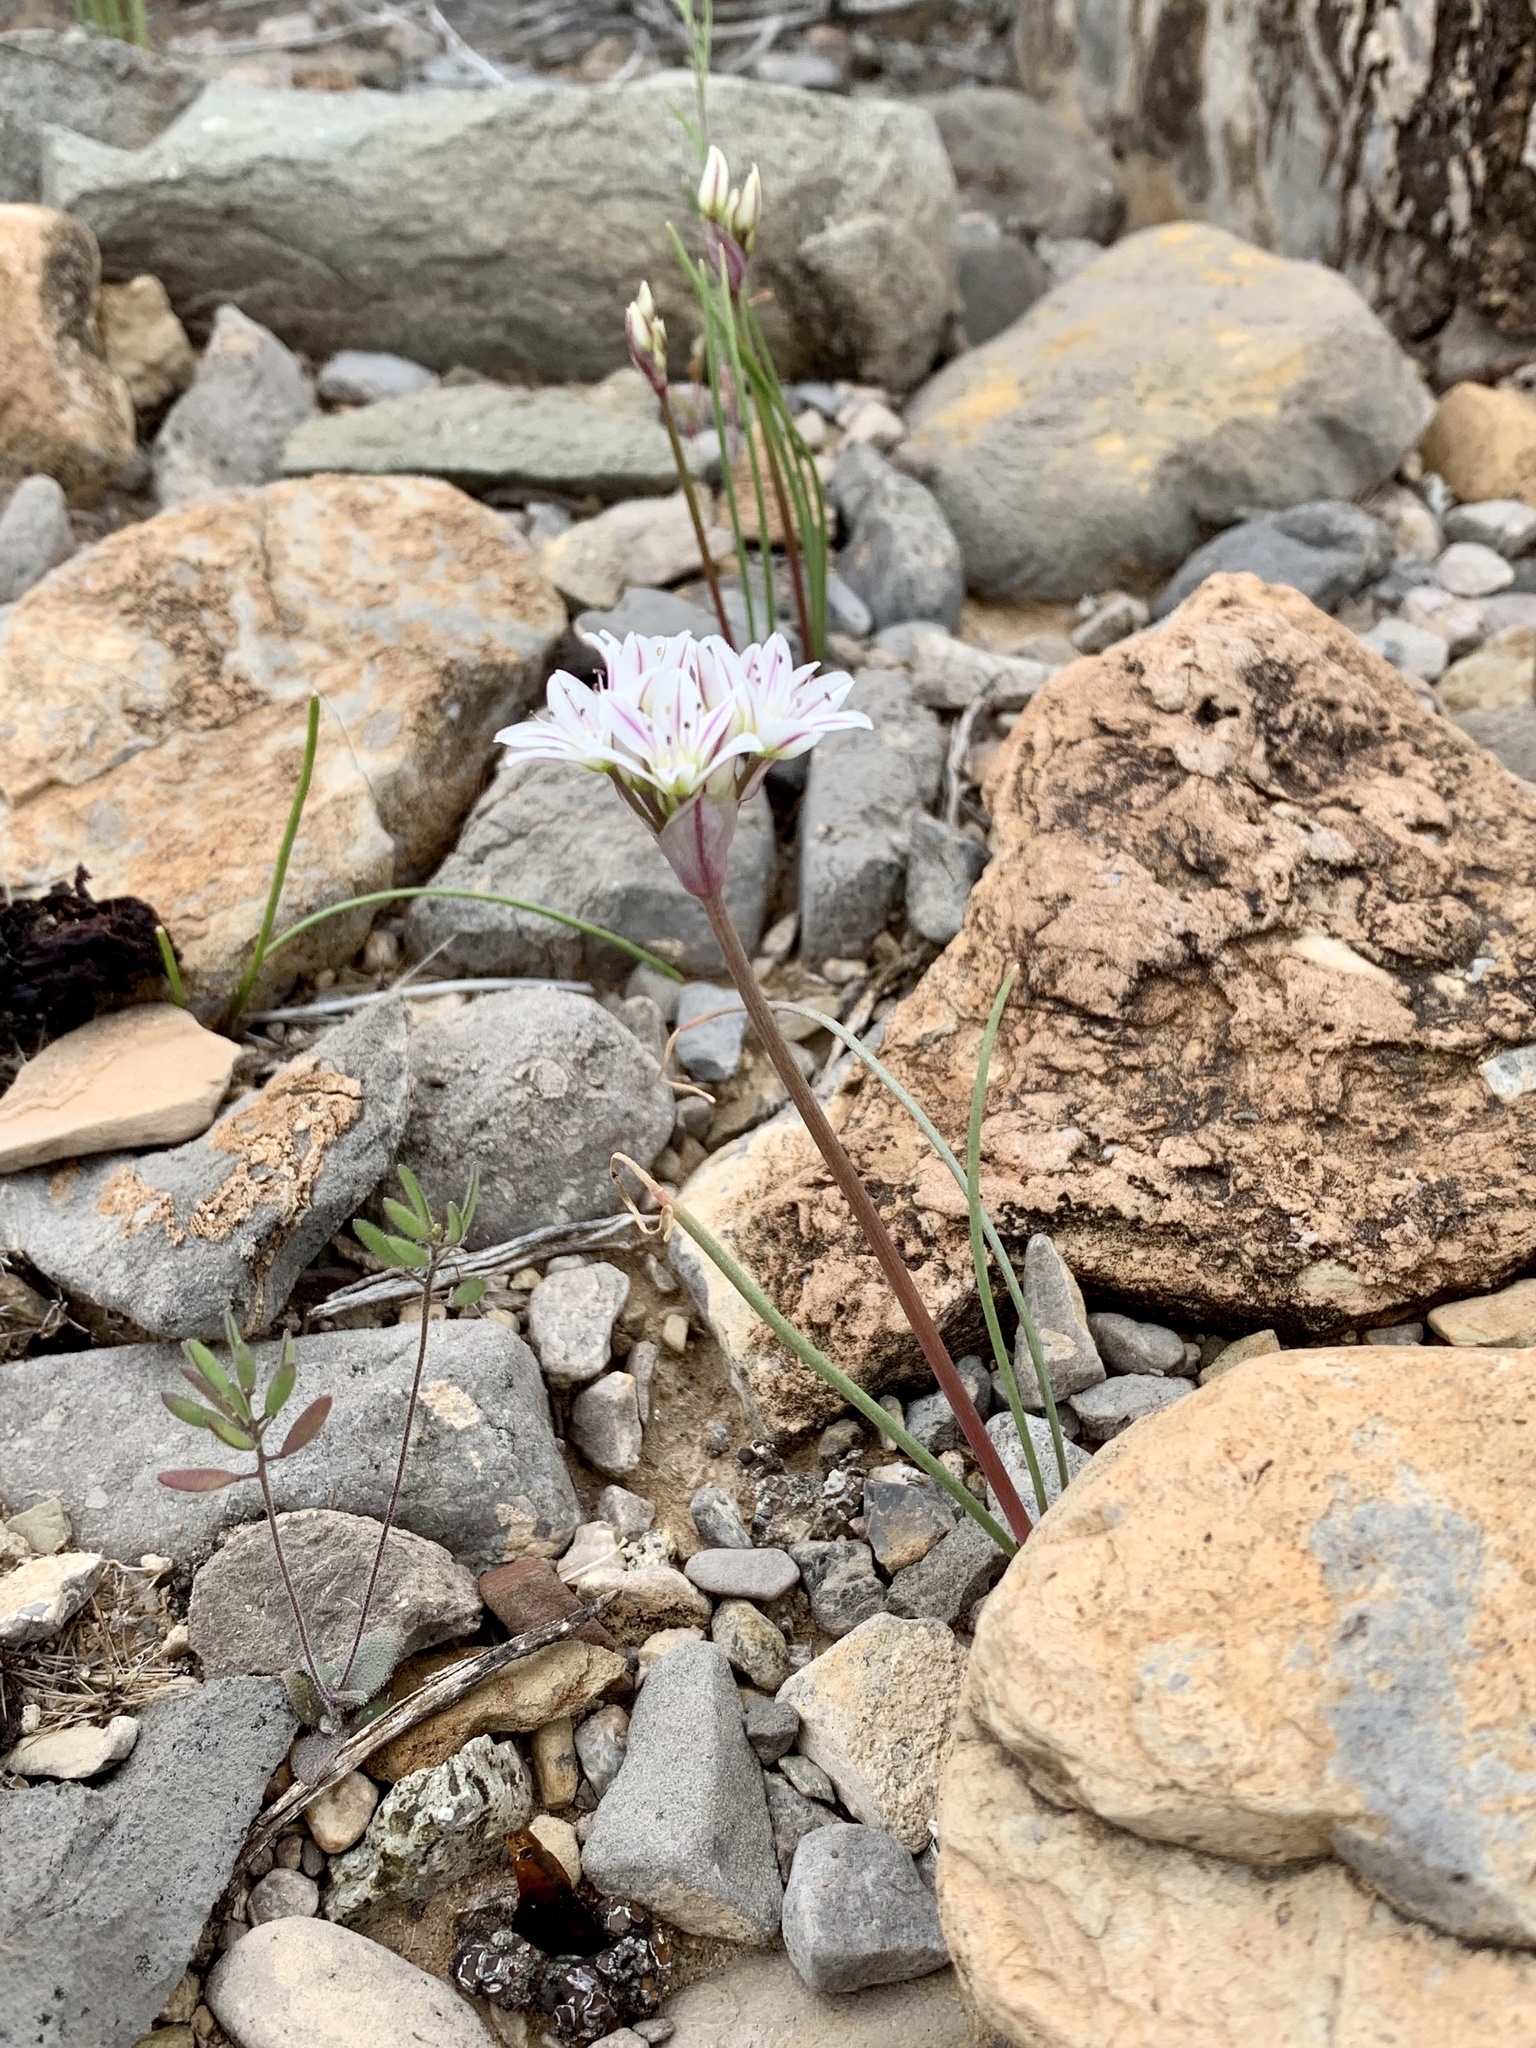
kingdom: Plantae
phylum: Tracheophyta
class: Liliopsida
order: Asparagales
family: Amaryllidaceae
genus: Allium
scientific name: Allium macropetalum
